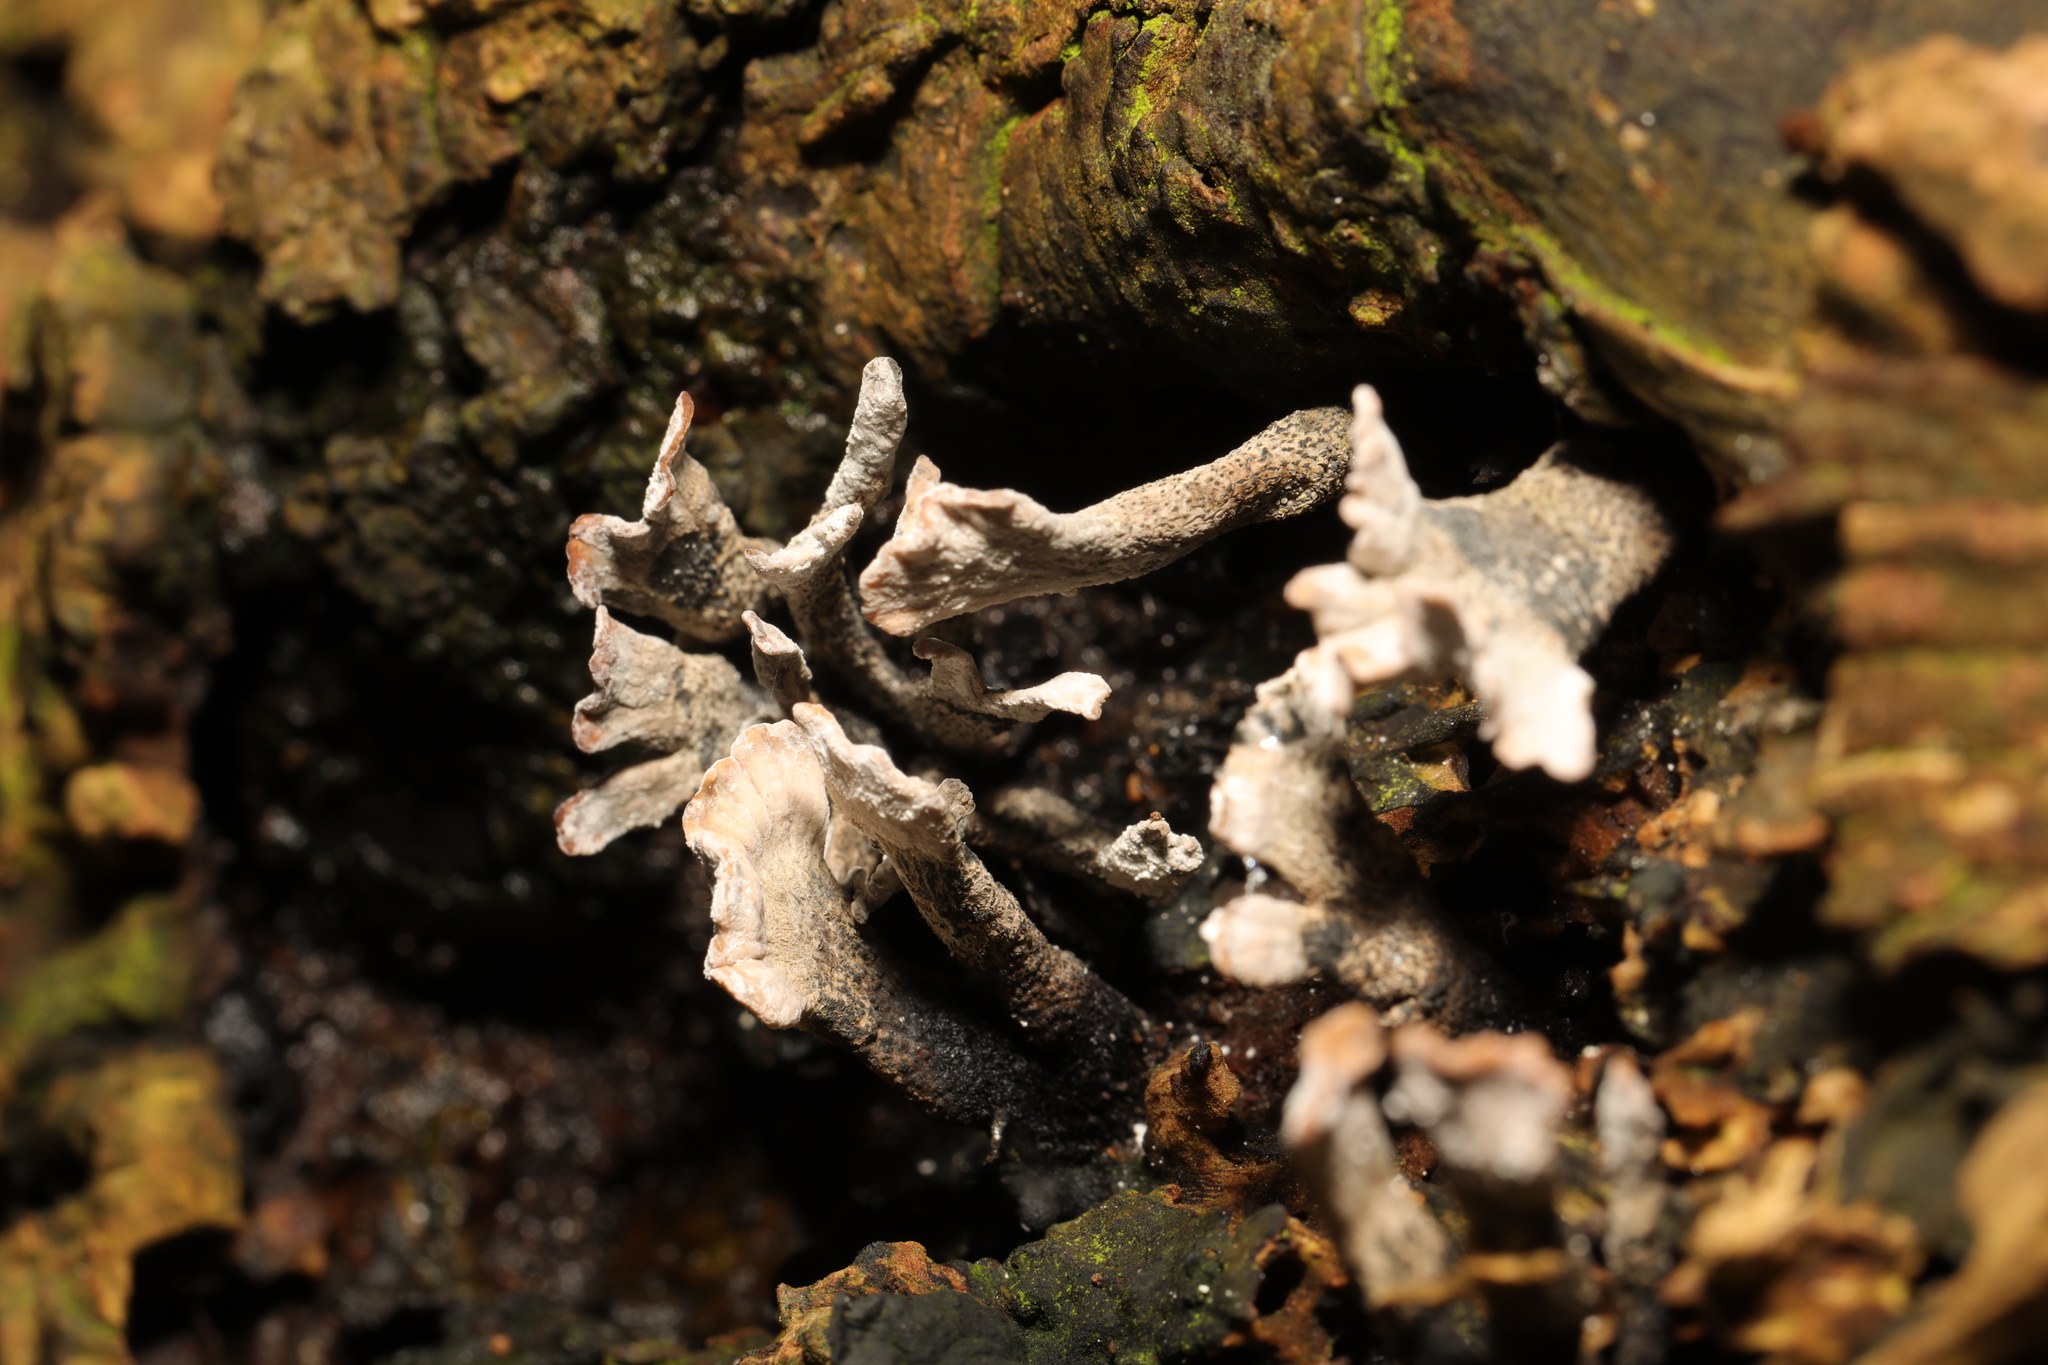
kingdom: Fungi
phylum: Ascomycota
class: Sordariomycetes
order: Xylariales
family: Xylariaceae
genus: Xylaria
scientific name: Xylaria hypoxylon
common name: Candle-snuff fungus
